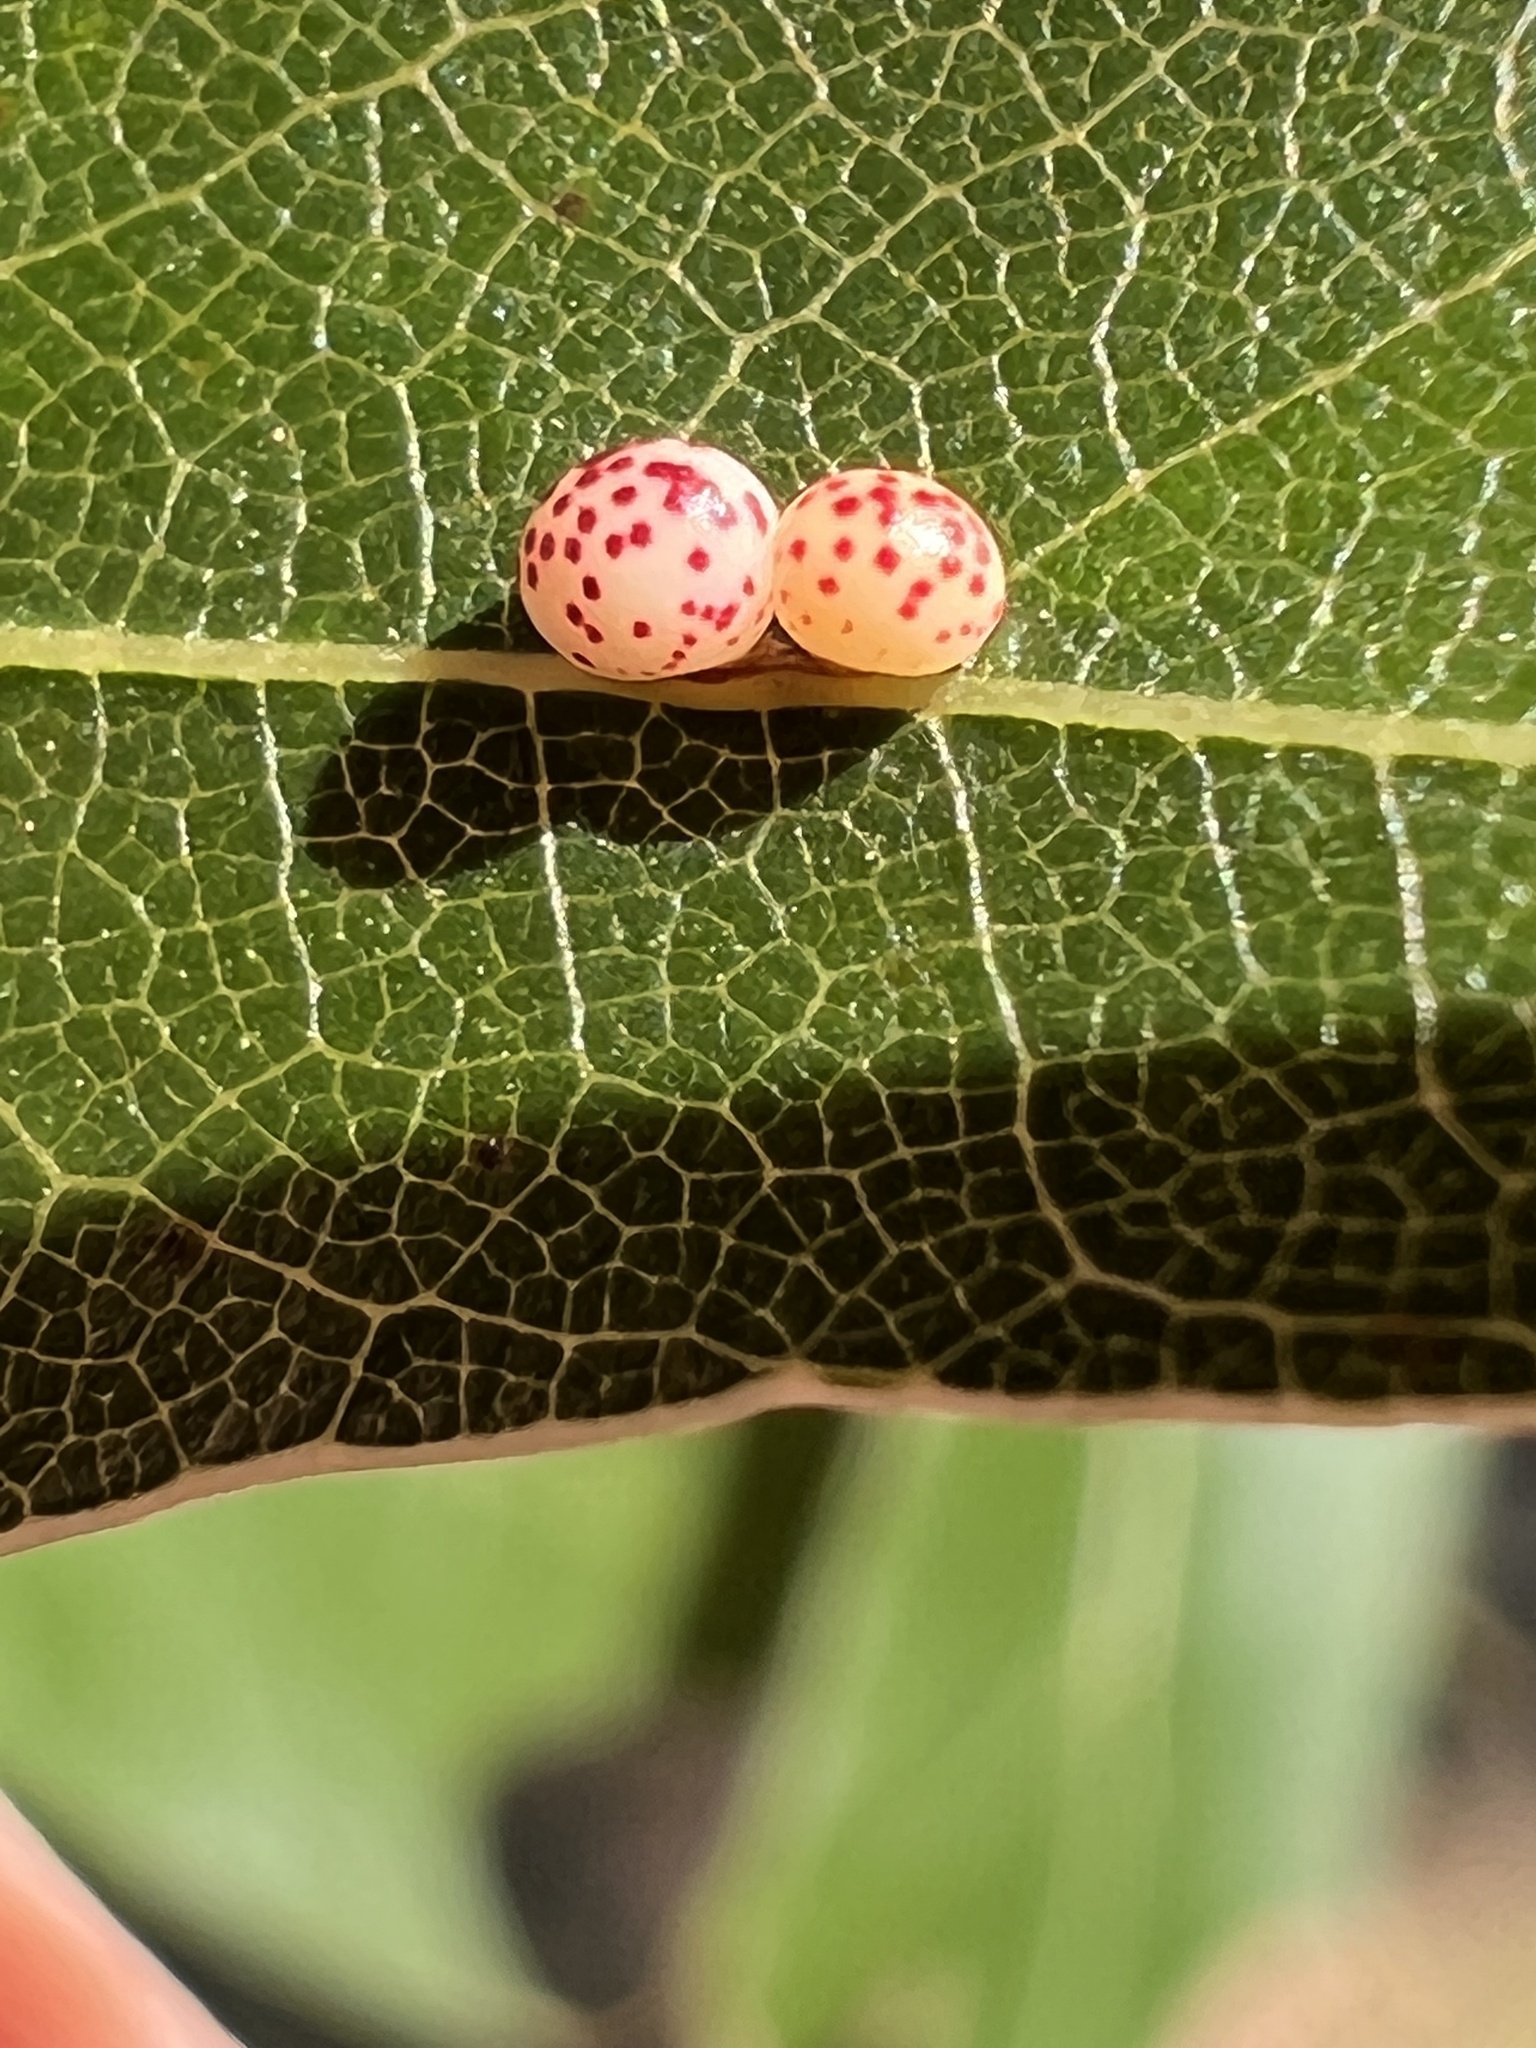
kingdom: Animalia
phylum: Arthropoda
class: Insecta
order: Hymenoptera
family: Cynipidae
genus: Zopheroteras
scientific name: Zopheroteras
